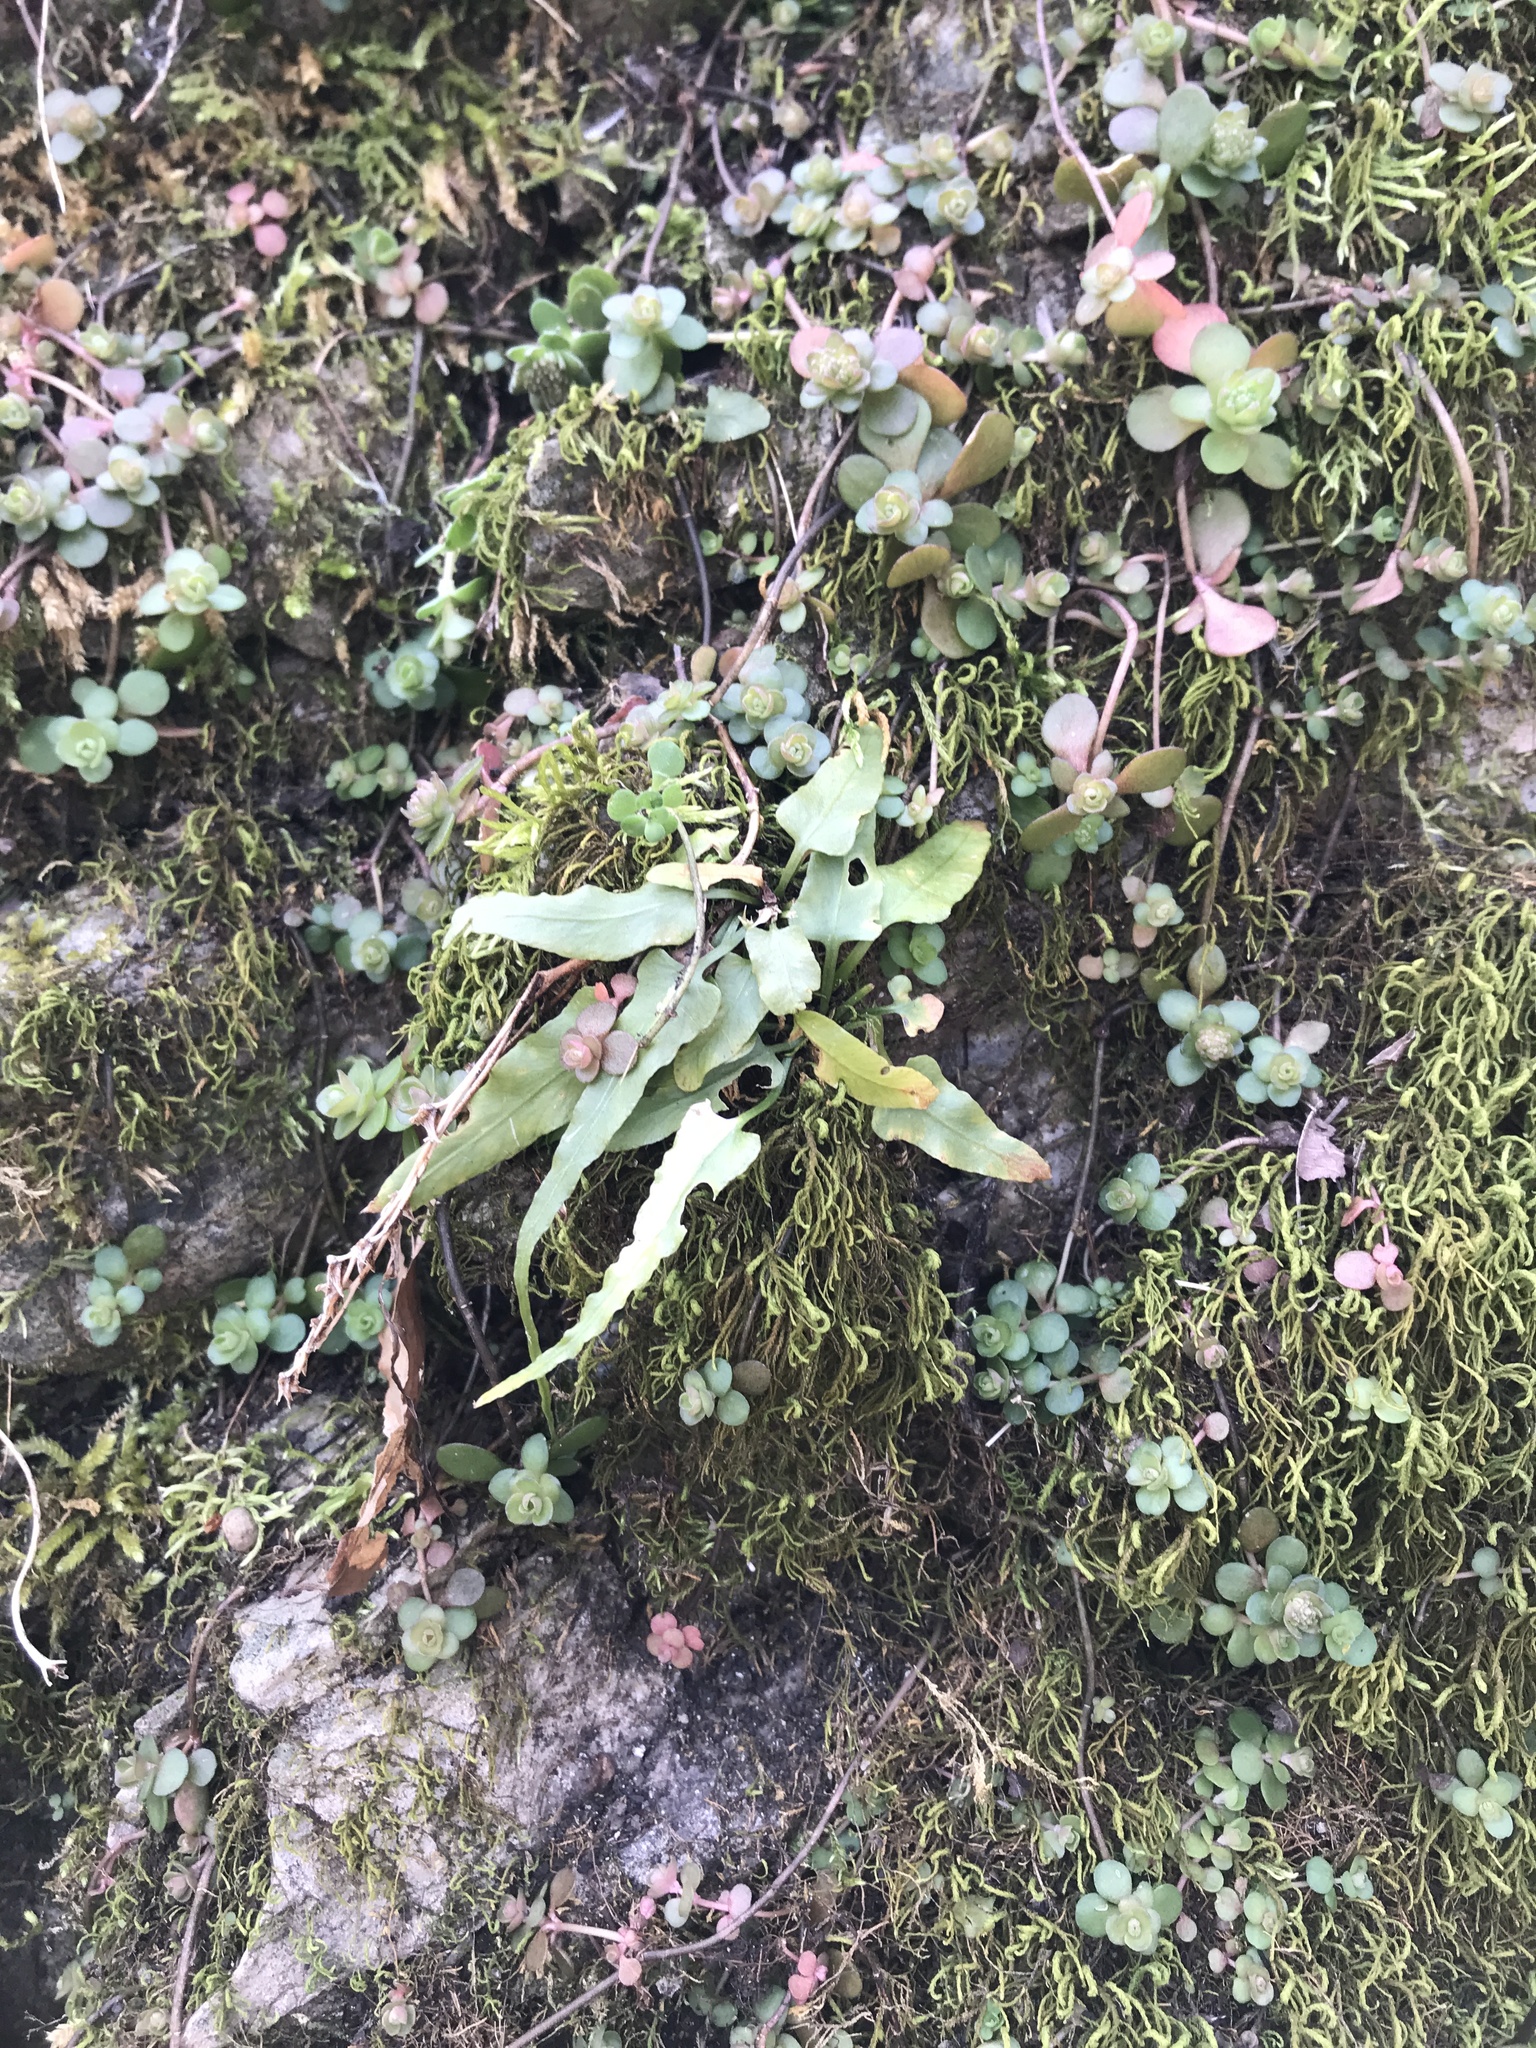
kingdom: Plantae
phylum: Tracheophyta
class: Polypodiopsida
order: Polypodiales
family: Aspleniaceae
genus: Asplenium
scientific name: Asplenium rhizophyllum
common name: Walking fern
